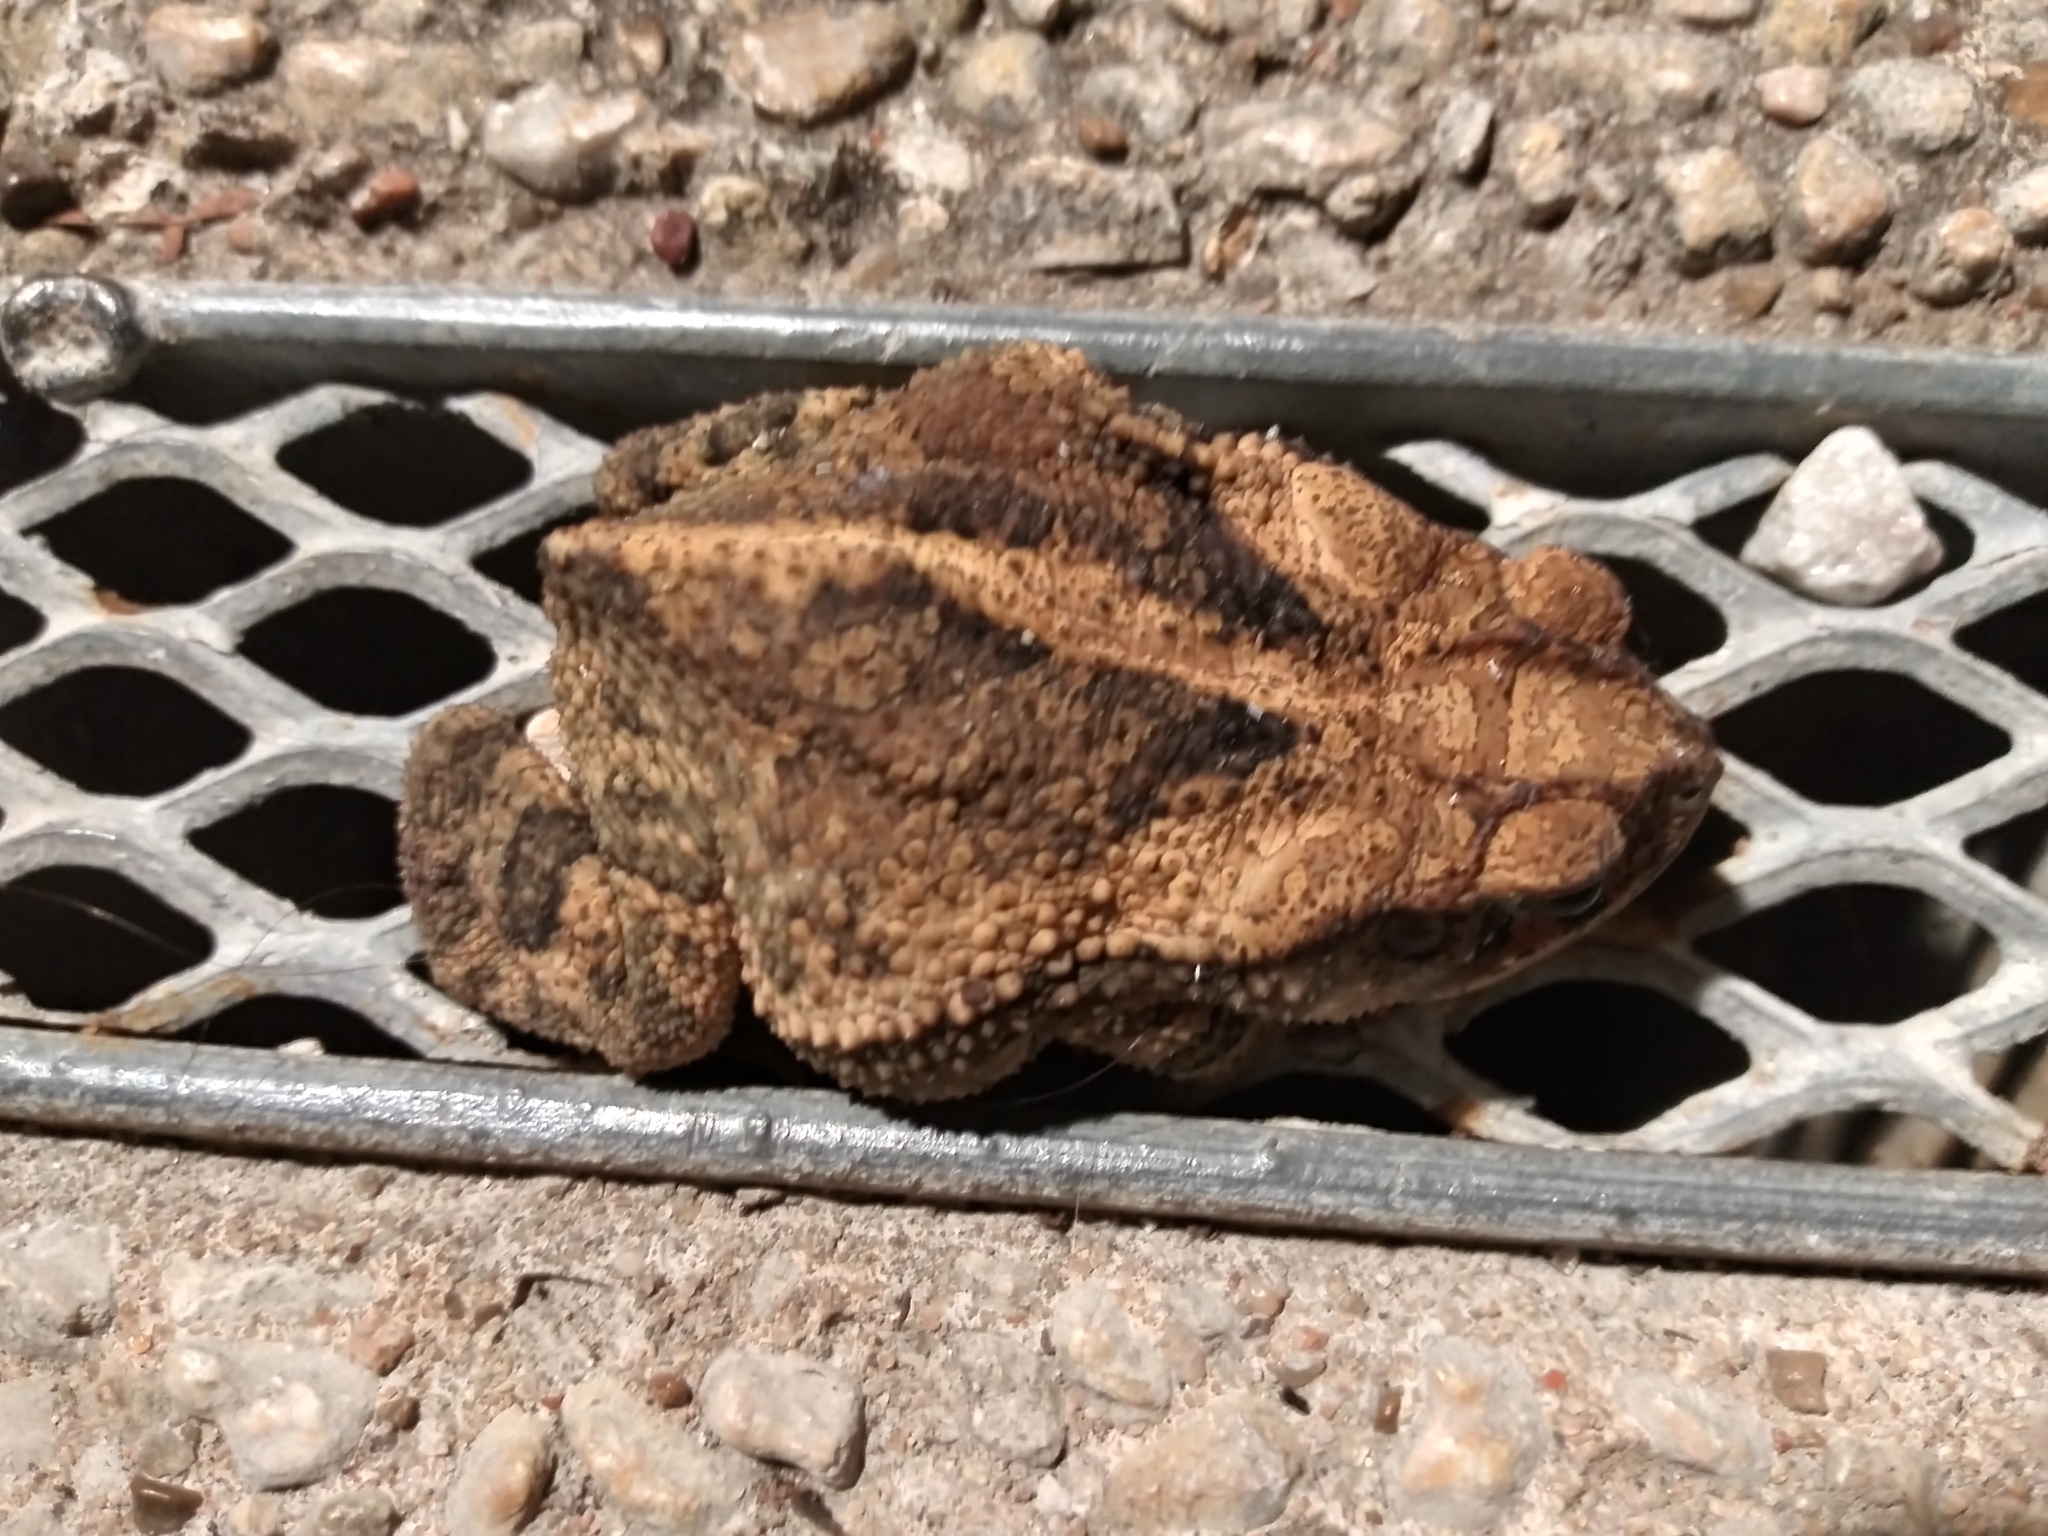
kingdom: Animalia
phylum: Chordata
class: Amphibia
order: Anura
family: Bufonidae
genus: Incilius
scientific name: Incilius nebulifer
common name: Gulf coast toad
